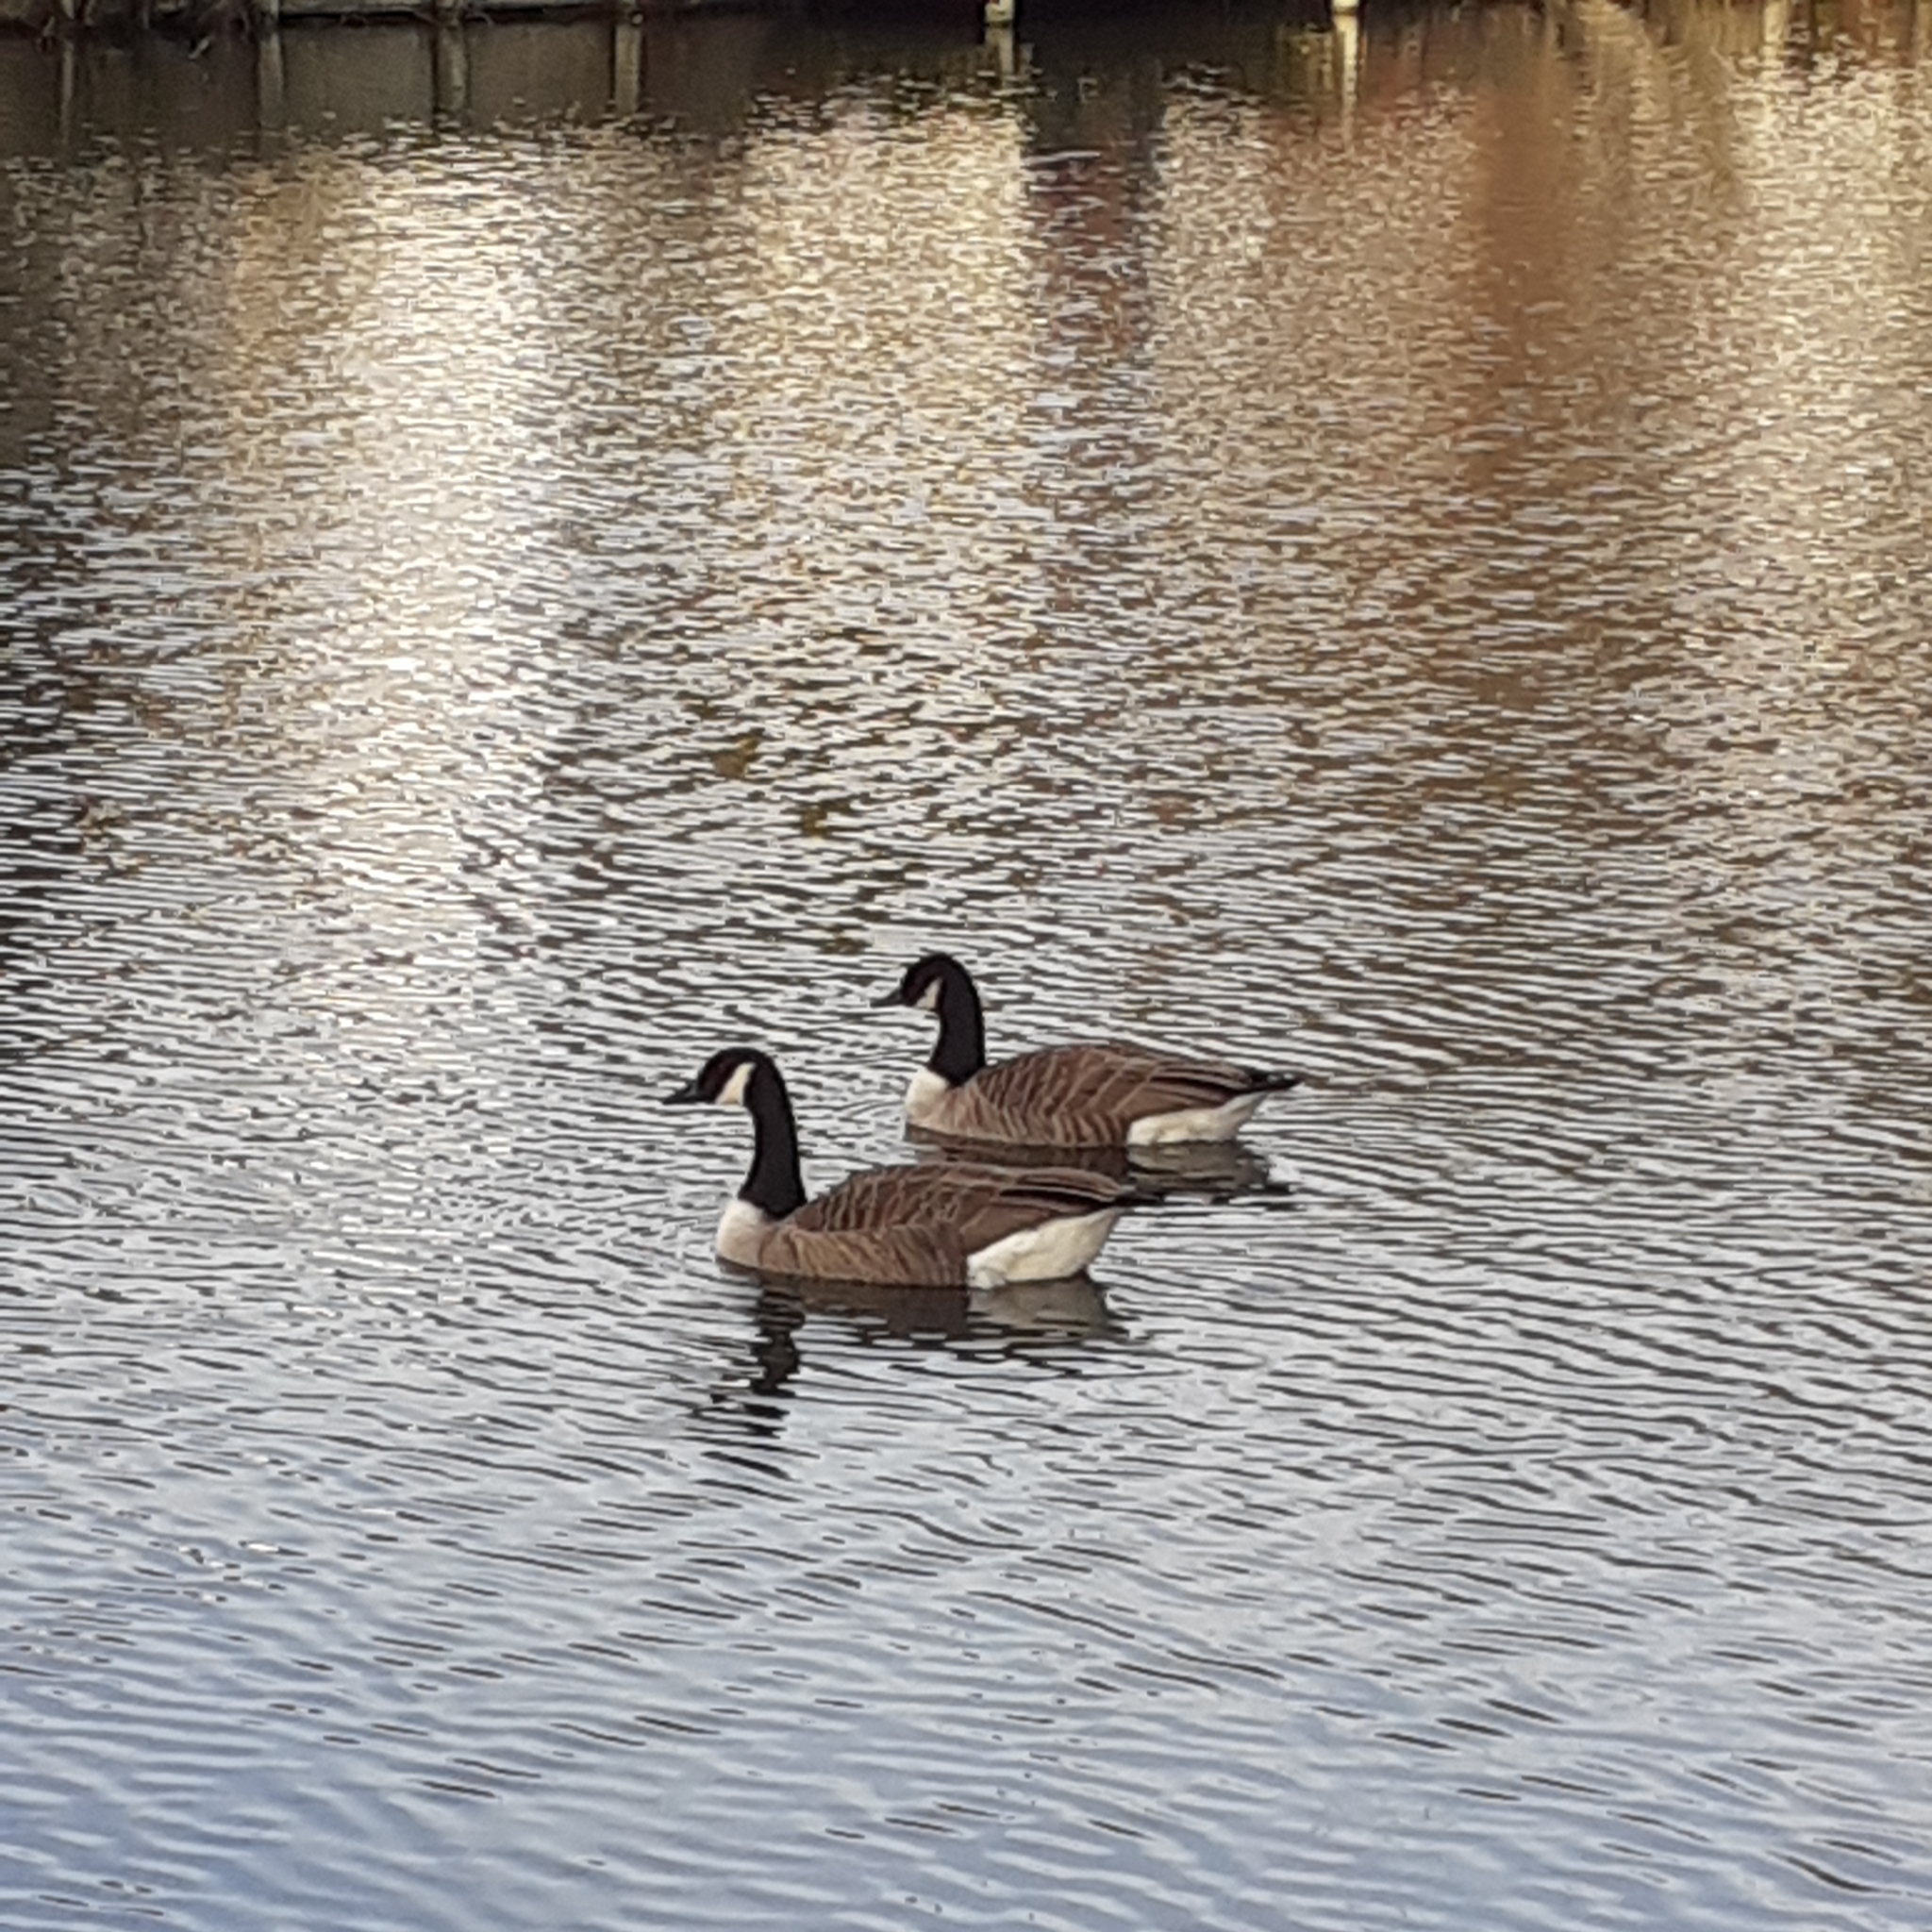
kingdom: Animalia
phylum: Chordata
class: Aves
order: Anseriformes
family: Anatidae
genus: Branta
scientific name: Branta canadensis
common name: Canada goose
